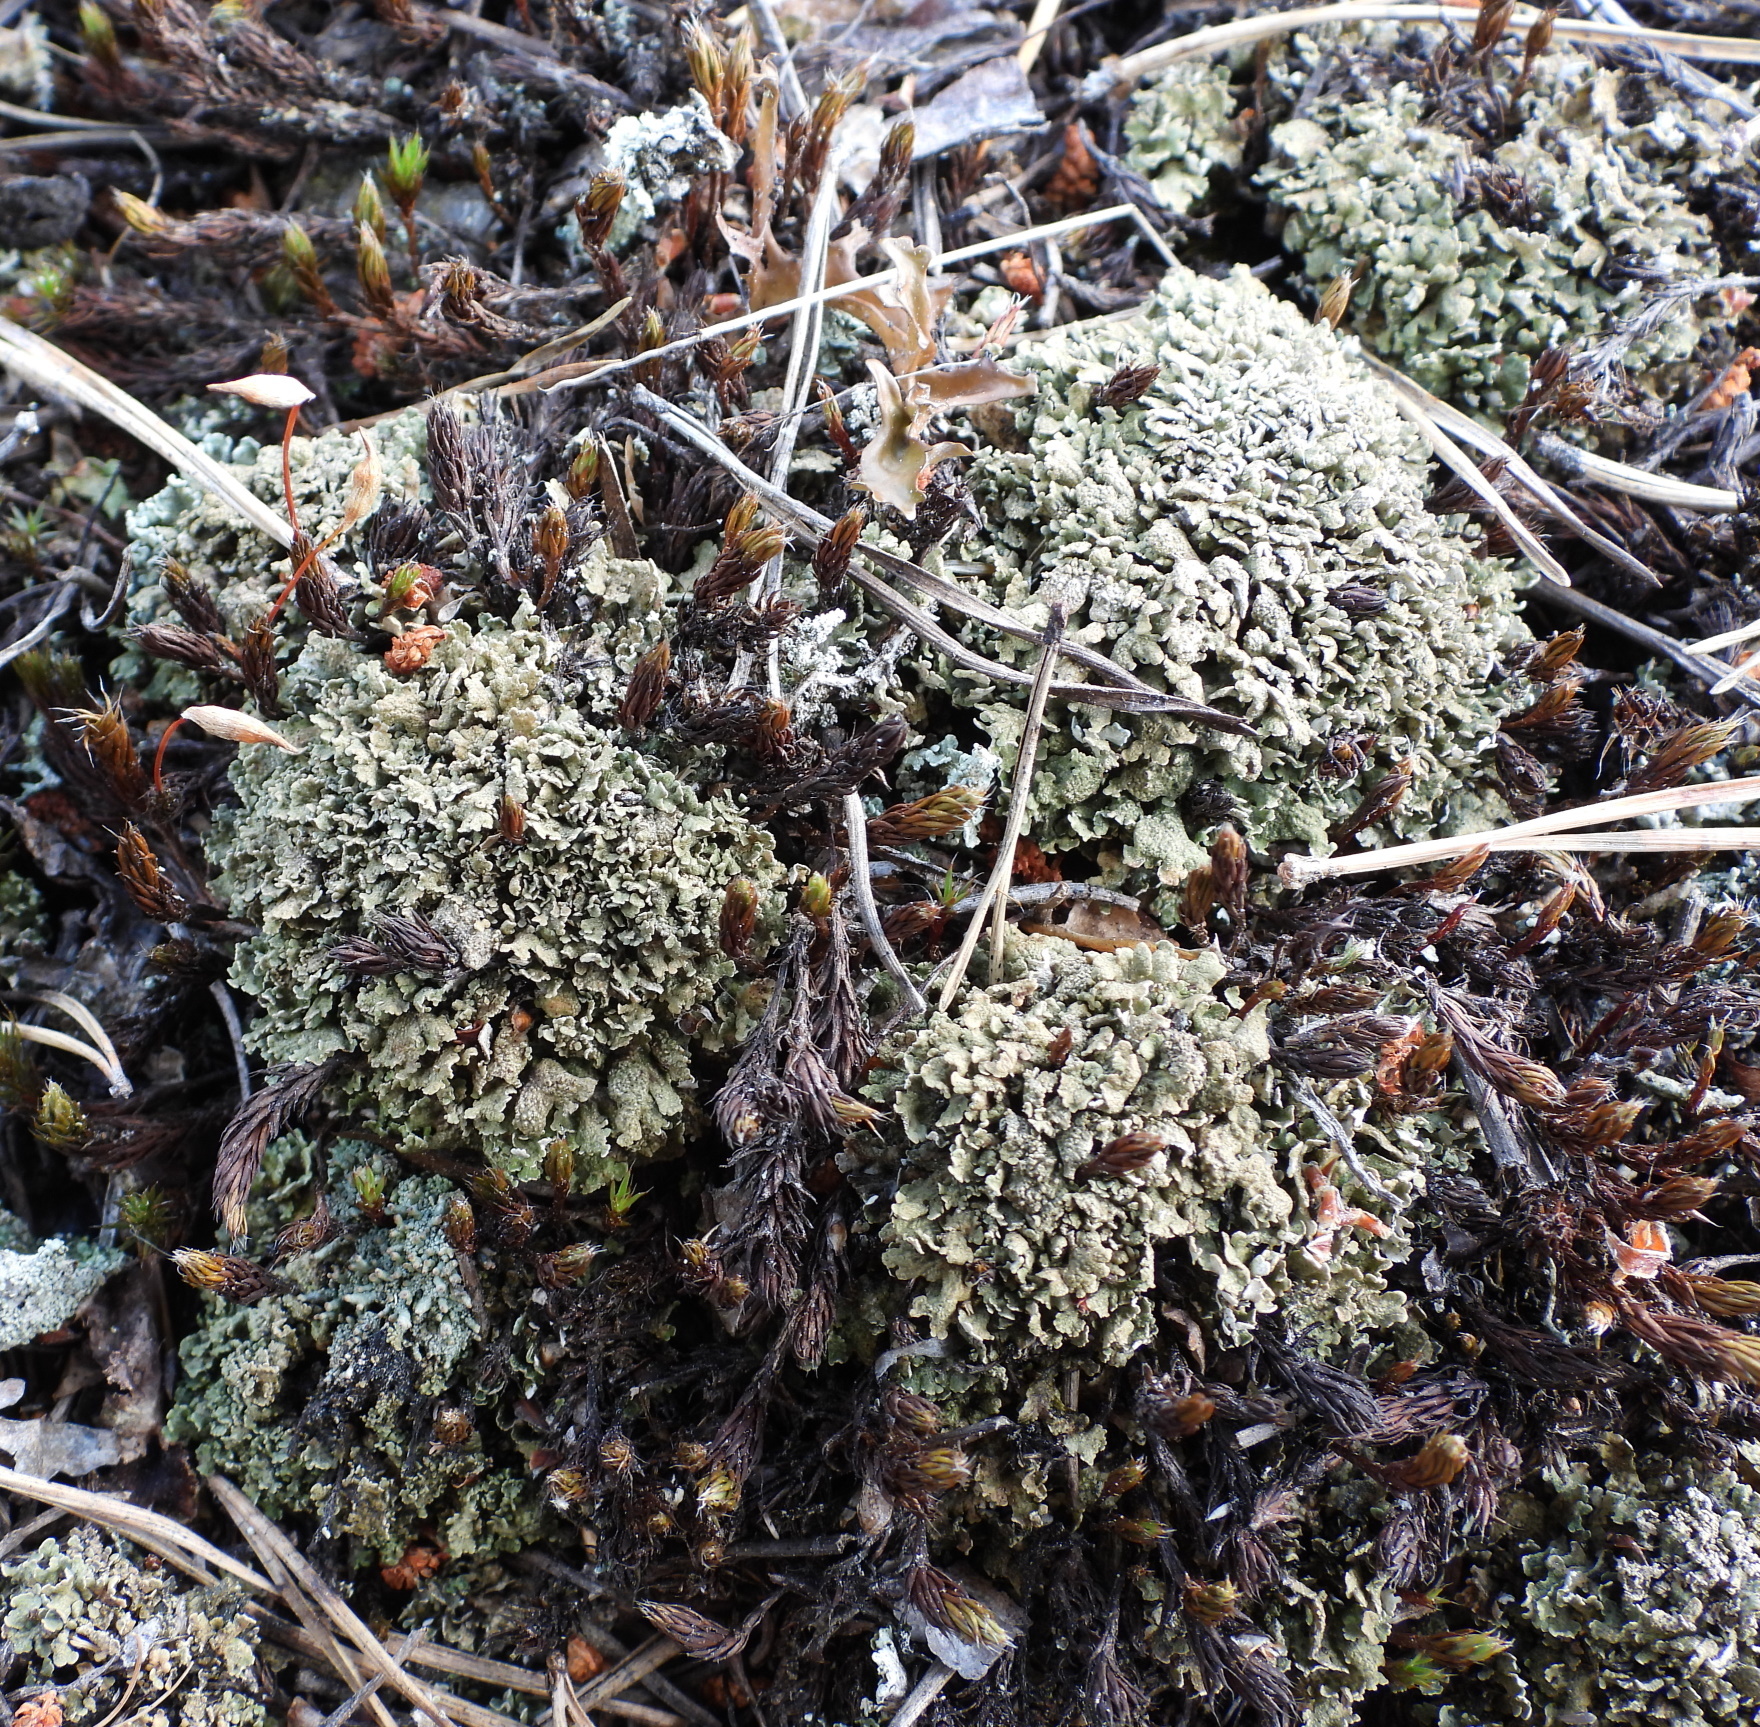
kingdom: Fungi
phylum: Ascomycota
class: Lecanoromycetes
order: Lecanorales
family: Cladoniaceae
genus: Cladonia
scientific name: Cladonia strepsilis
